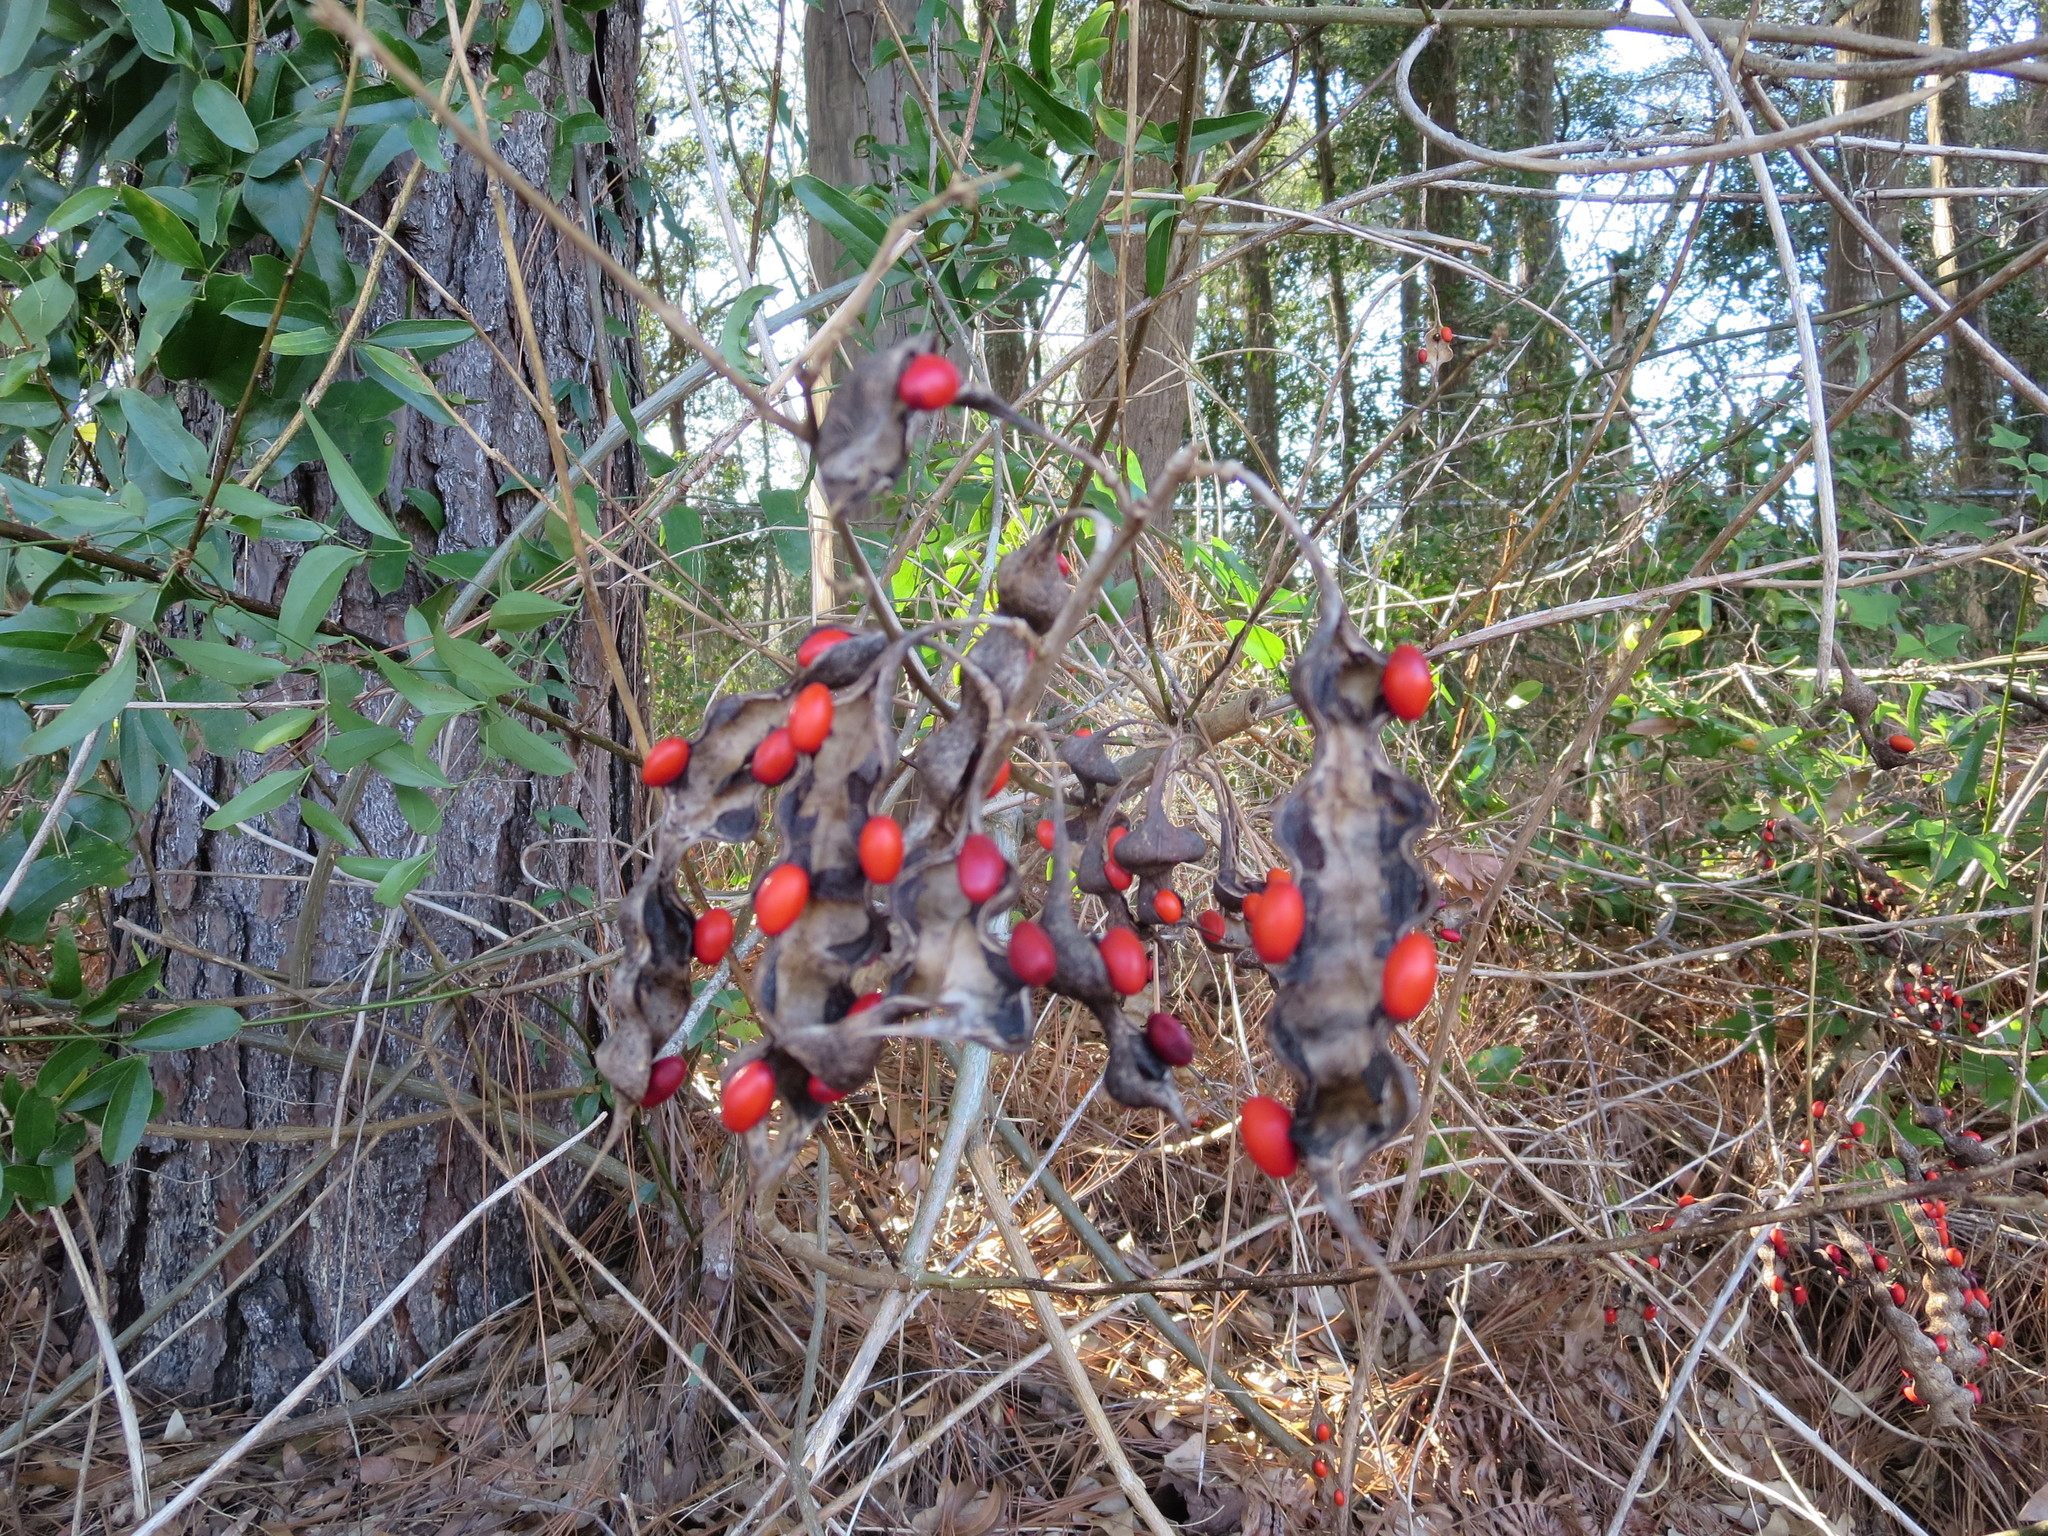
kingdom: Plantae
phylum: Tracheophyta
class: Magnoliopsida
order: Fabales
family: Fabaceae
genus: Erythrina
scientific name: Erythrina herbacea
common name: Coral-bean
